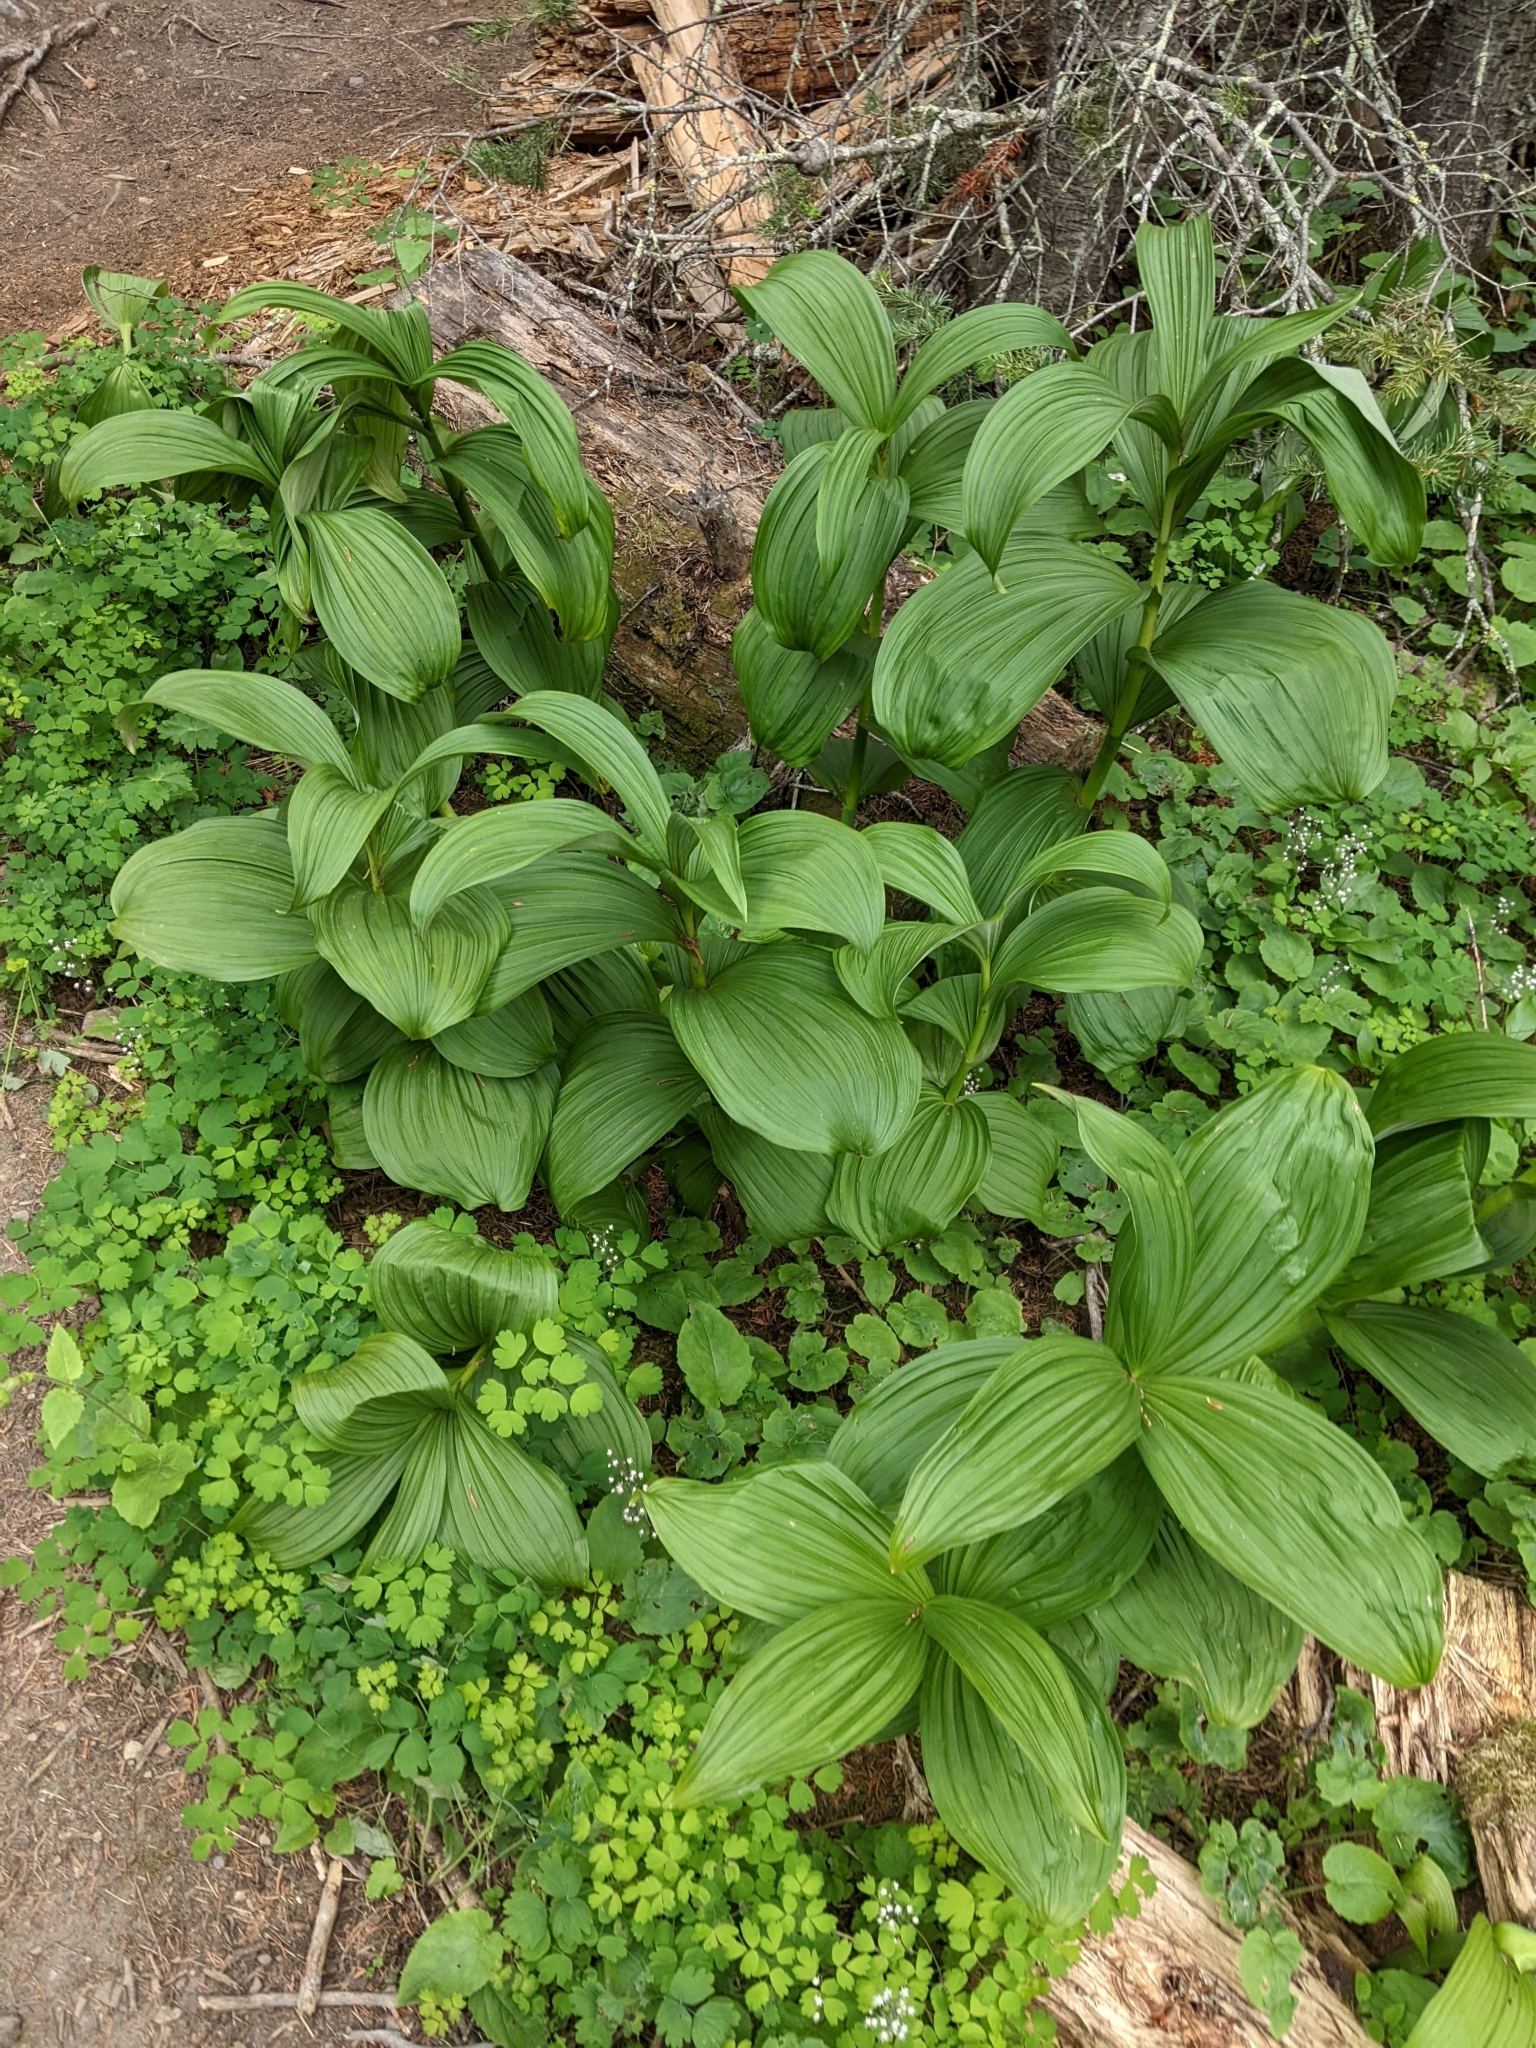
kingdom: Plantae
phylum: Tracheophyta
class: Liliopsida
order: Liliales
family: Melanthiaceae
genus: Veratrum
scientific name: Veratrum viride
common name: American false hellebore
